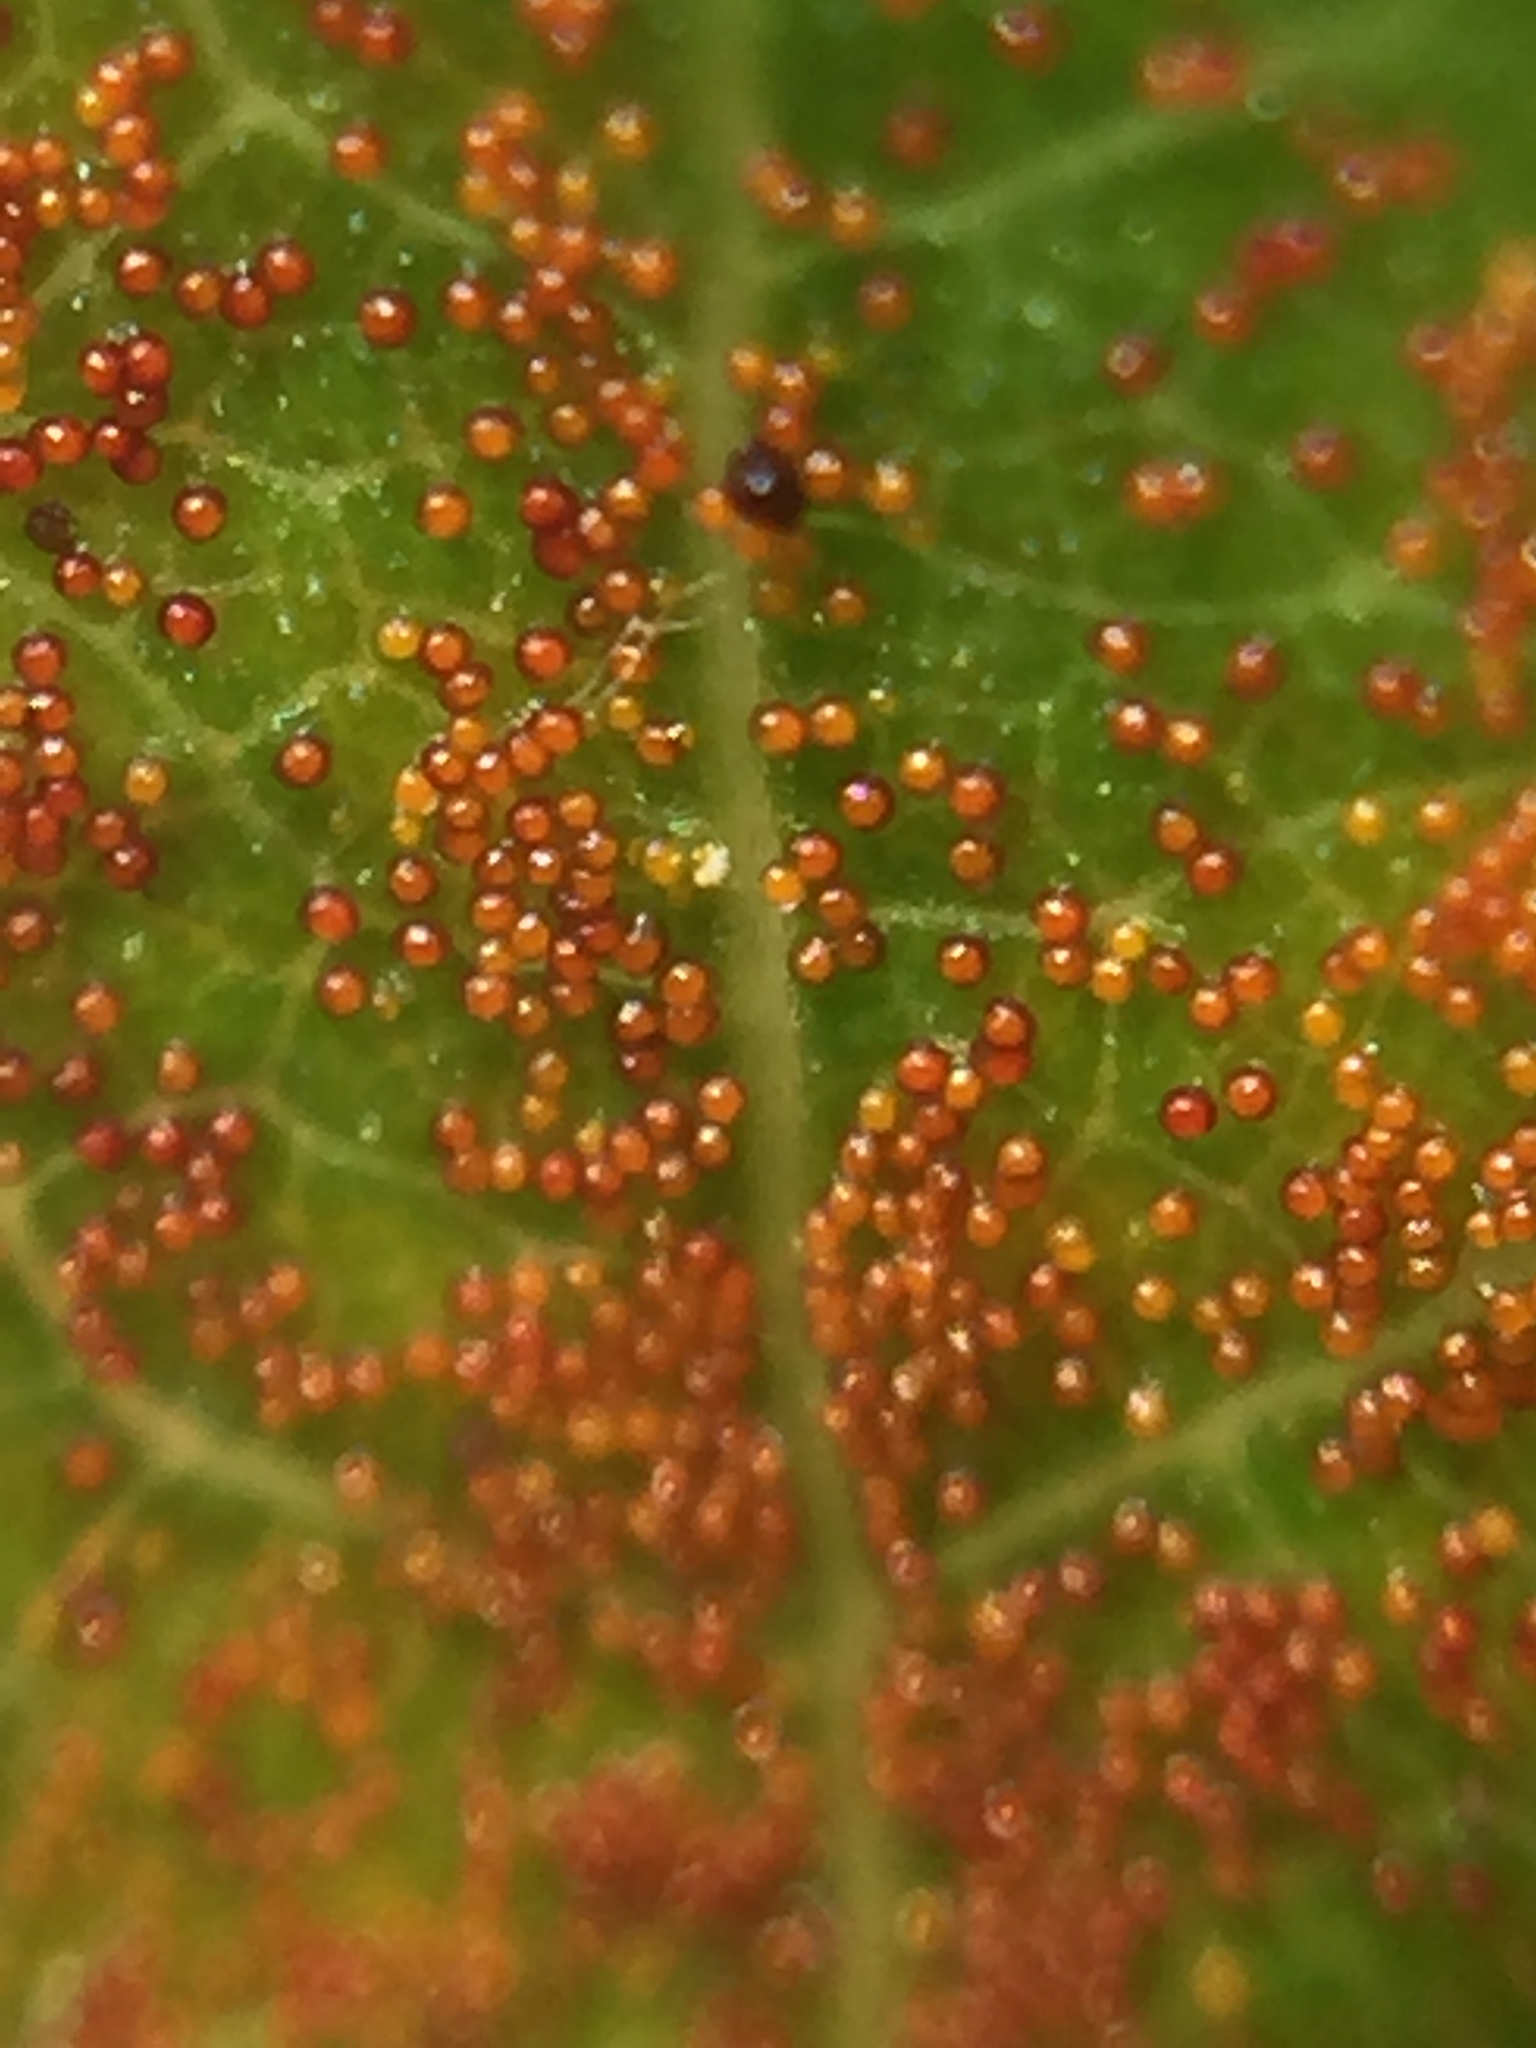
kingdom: Fungi
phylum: Chytridiomycota
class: Chytridiomycetes
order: Chytridiales
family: Synchytriaceae
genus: Synchytrium
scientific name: Synchytrium australe
